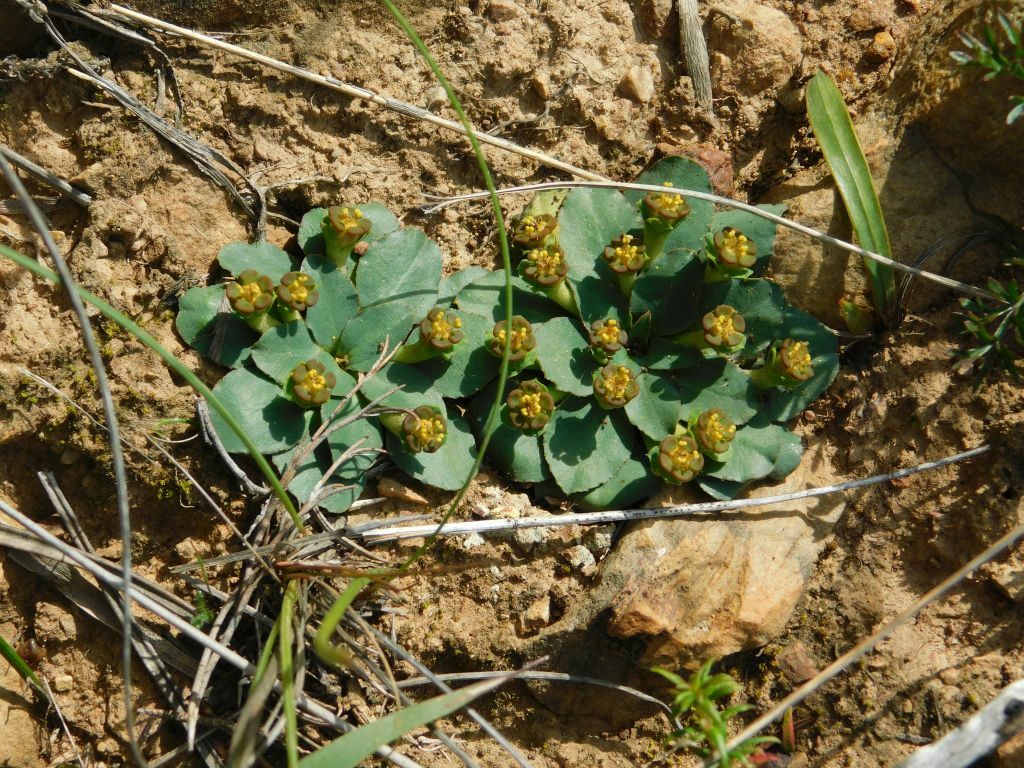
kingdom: Plantae
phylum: Tracheophyta
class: Magnoliopsida
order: Malpighiales
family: Euphorbiaceae
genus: Euphorbia
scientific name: Euphorbia tuberosa
